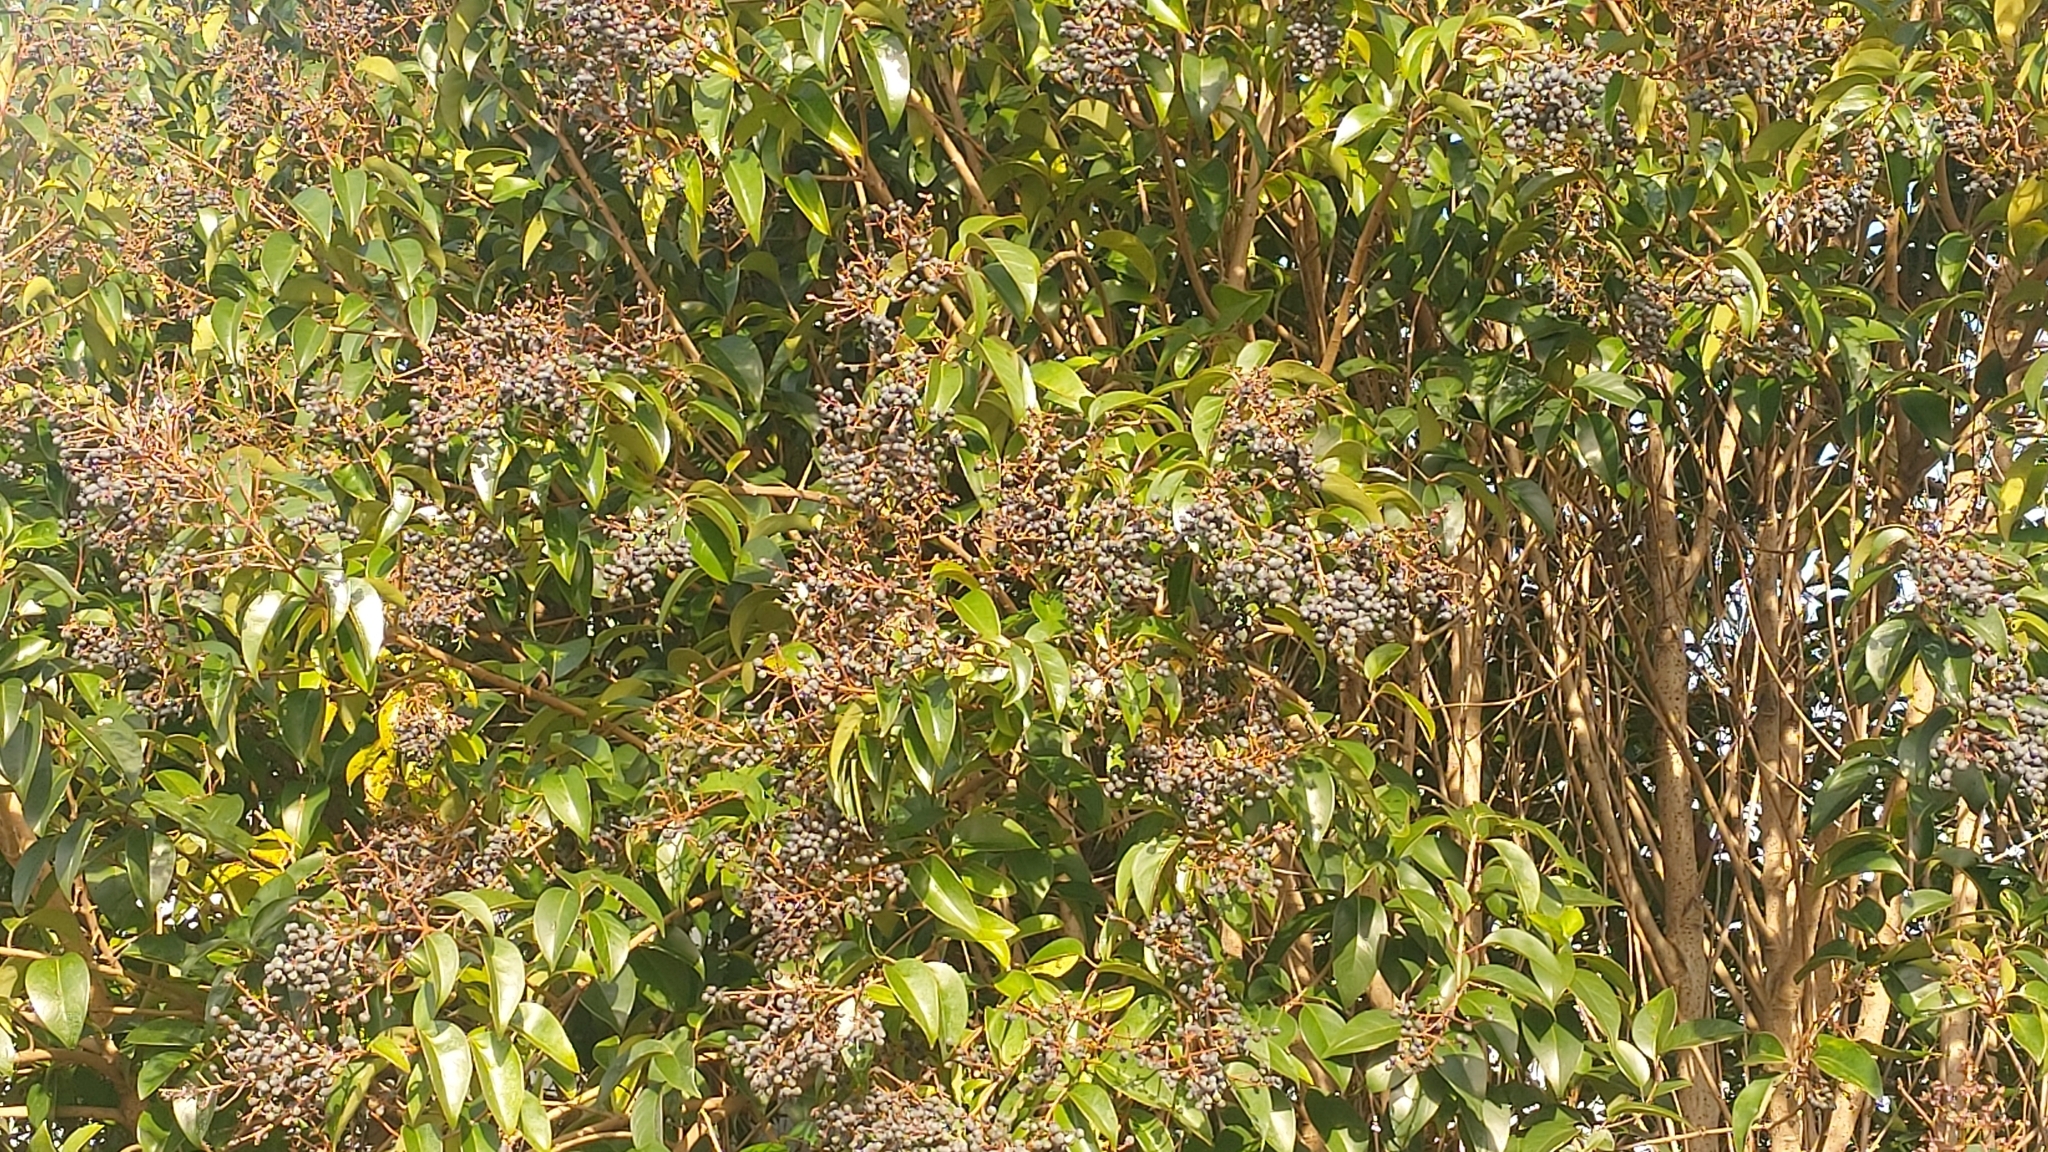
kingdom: Plantae
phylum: Tracheophyta
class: Magnoliopsida
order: Lamiales
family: Oleaceae
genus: Ligustrum
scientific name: Ligustrum lucidum
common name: Glossy privet
